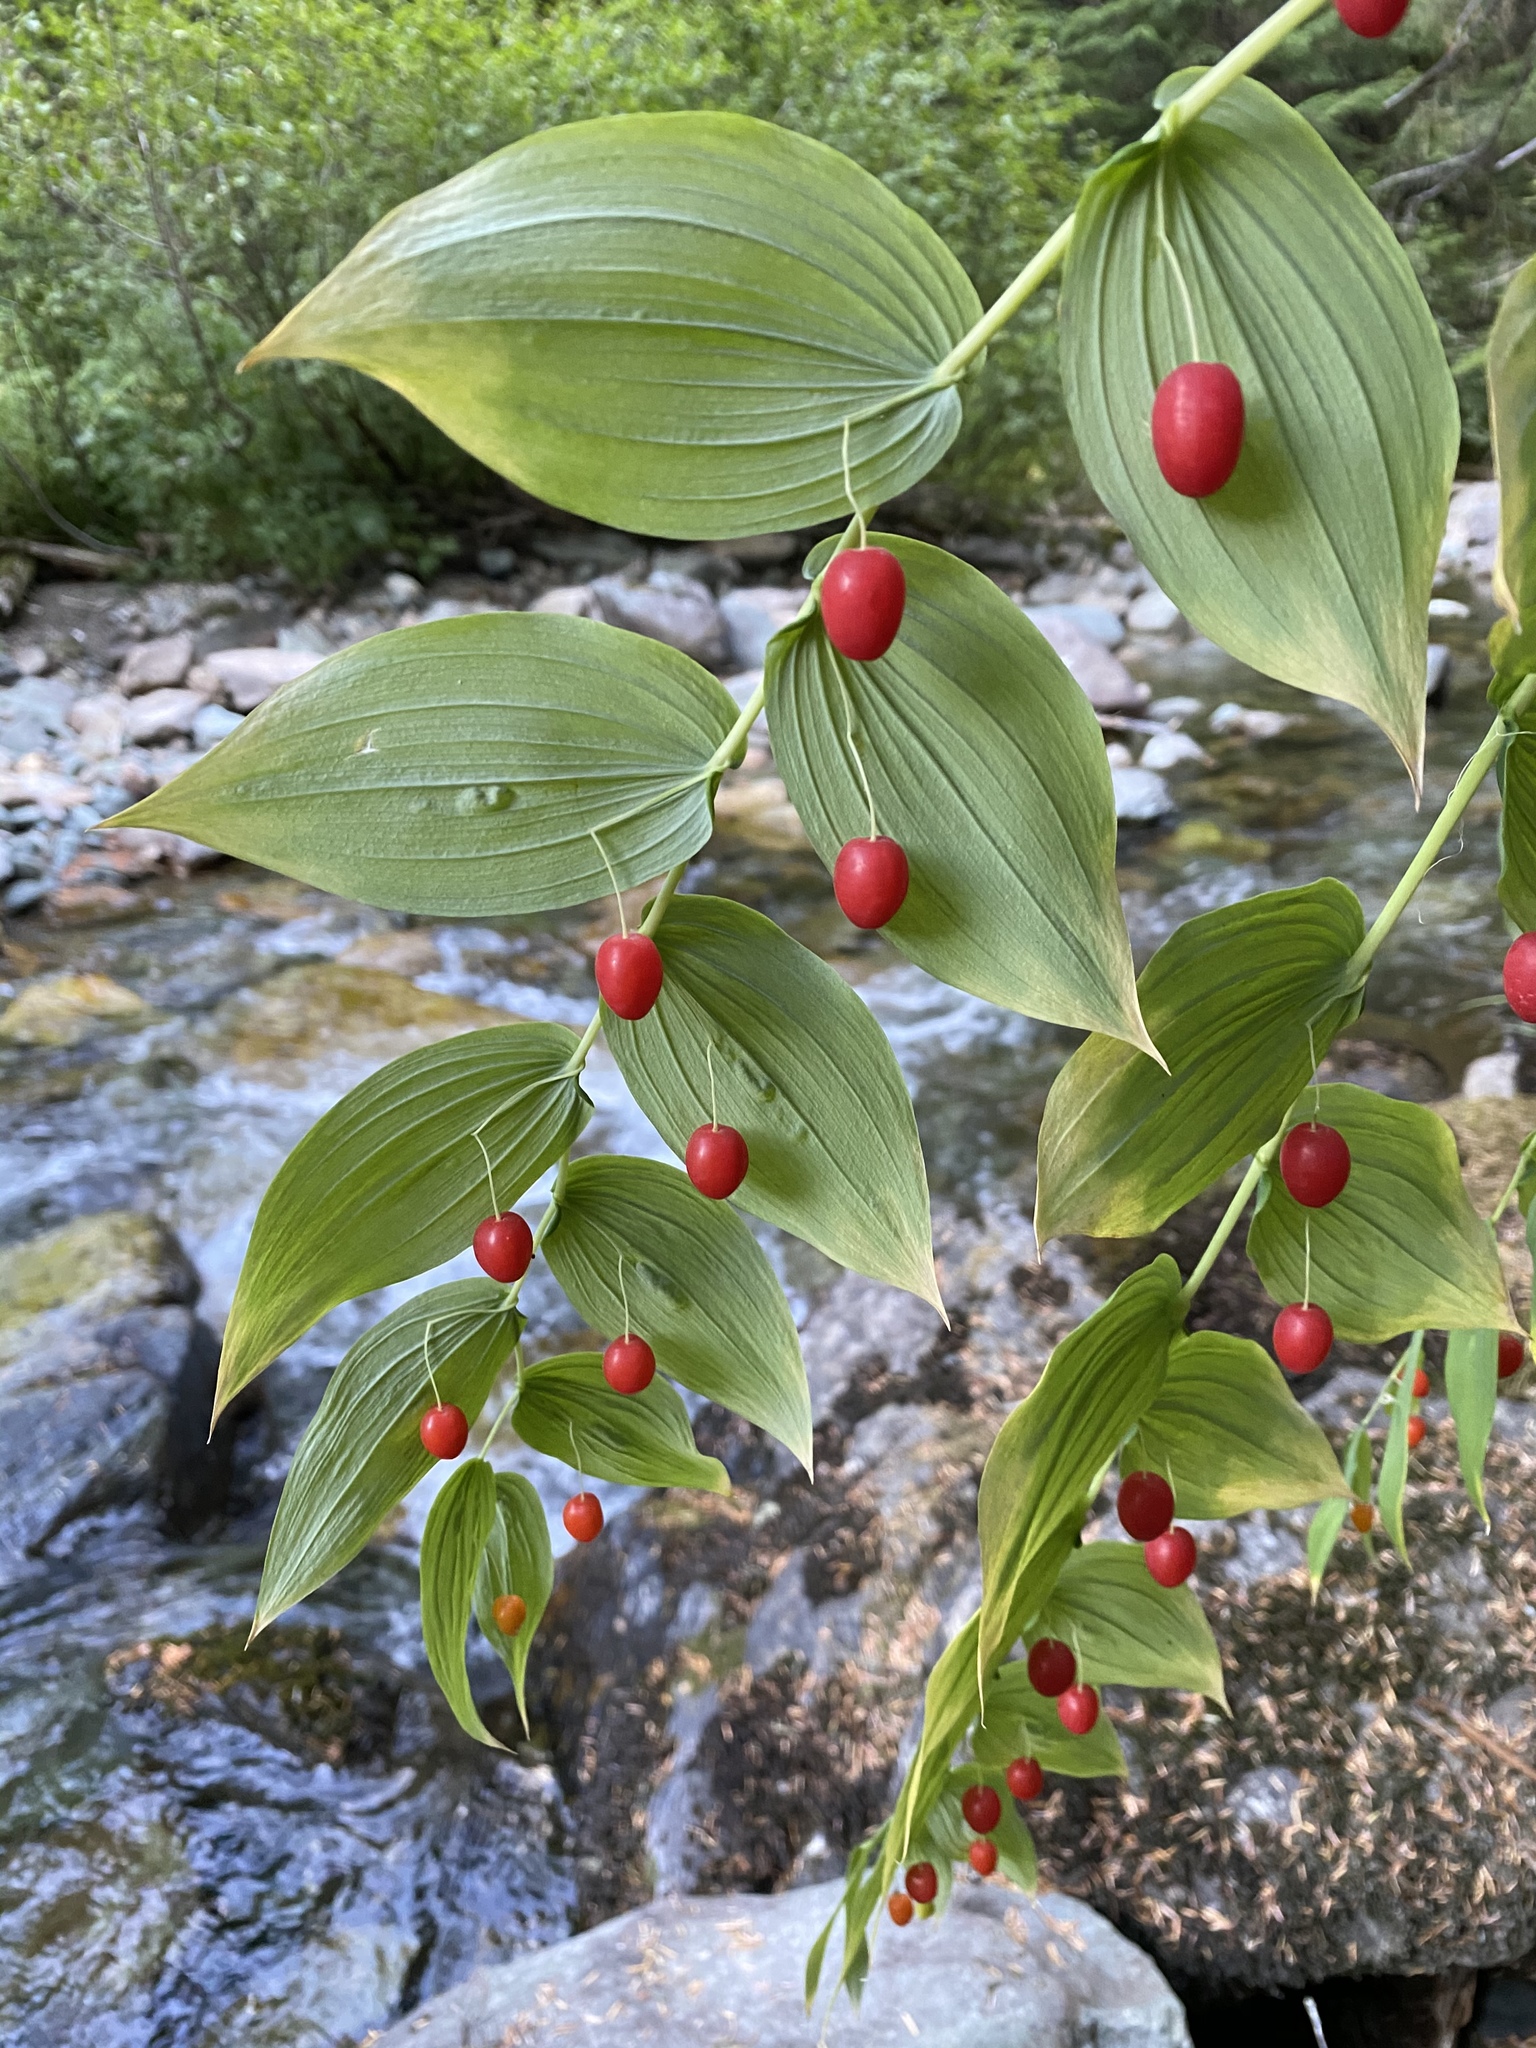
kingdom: Plantae
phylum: Tracheophyta
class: Liliopsida
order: Liliales
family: Liliaceae
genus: Streptopus
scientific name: Streptopus amplexifolius
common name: Clasp twisted stalk
